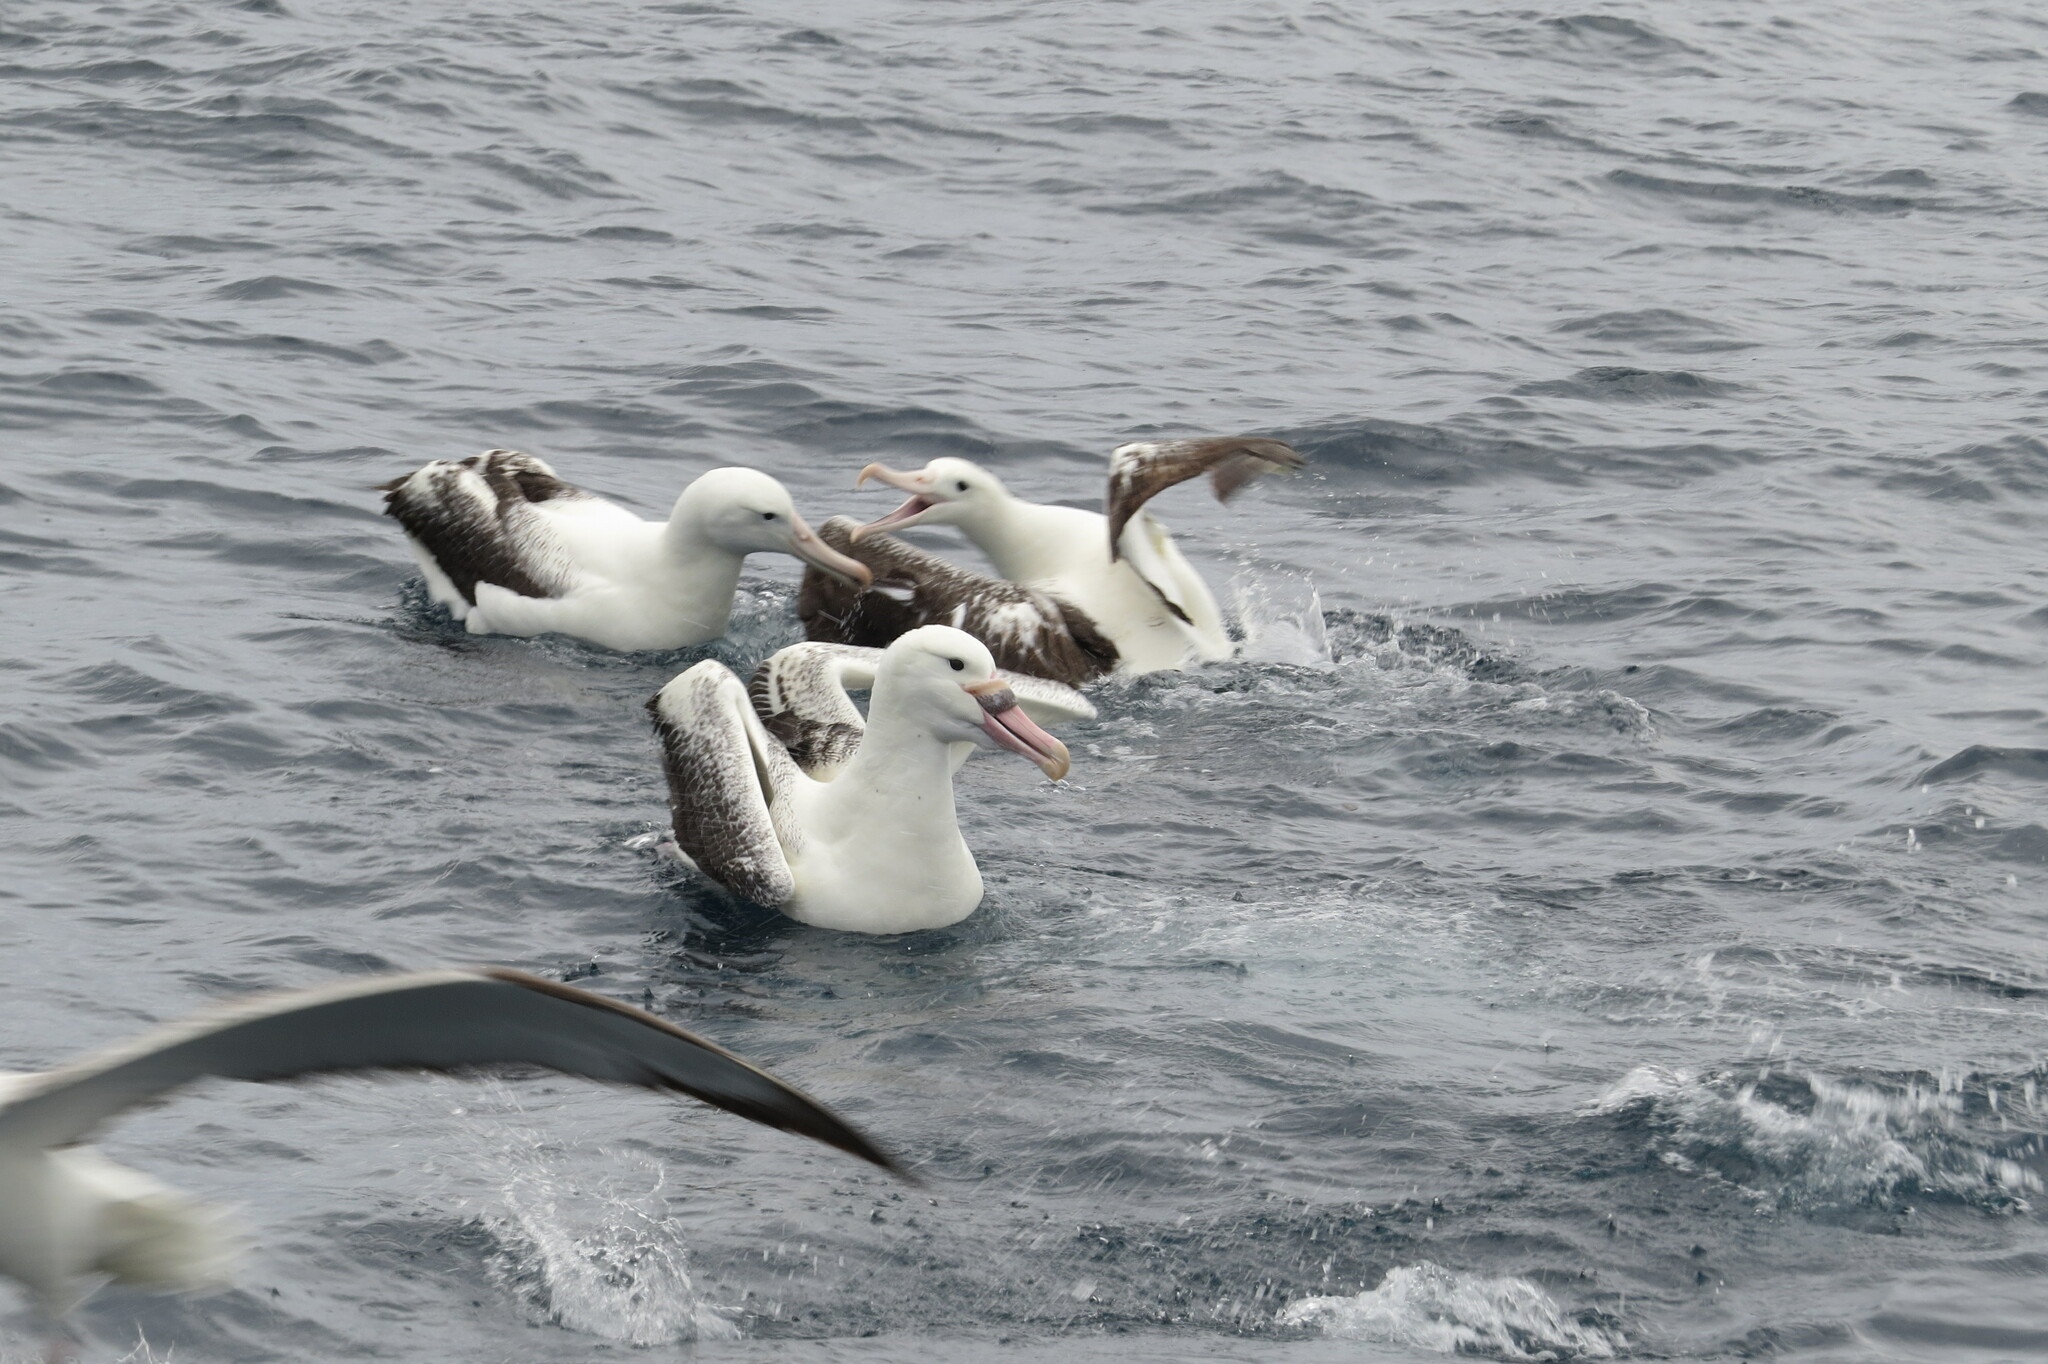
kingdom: Animalia
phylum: Chordata
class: Aves
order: Procellariiformes
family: Diomedeidae
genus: Diomedea
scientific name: Diomedea epomophora
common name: Southern royal albatross
